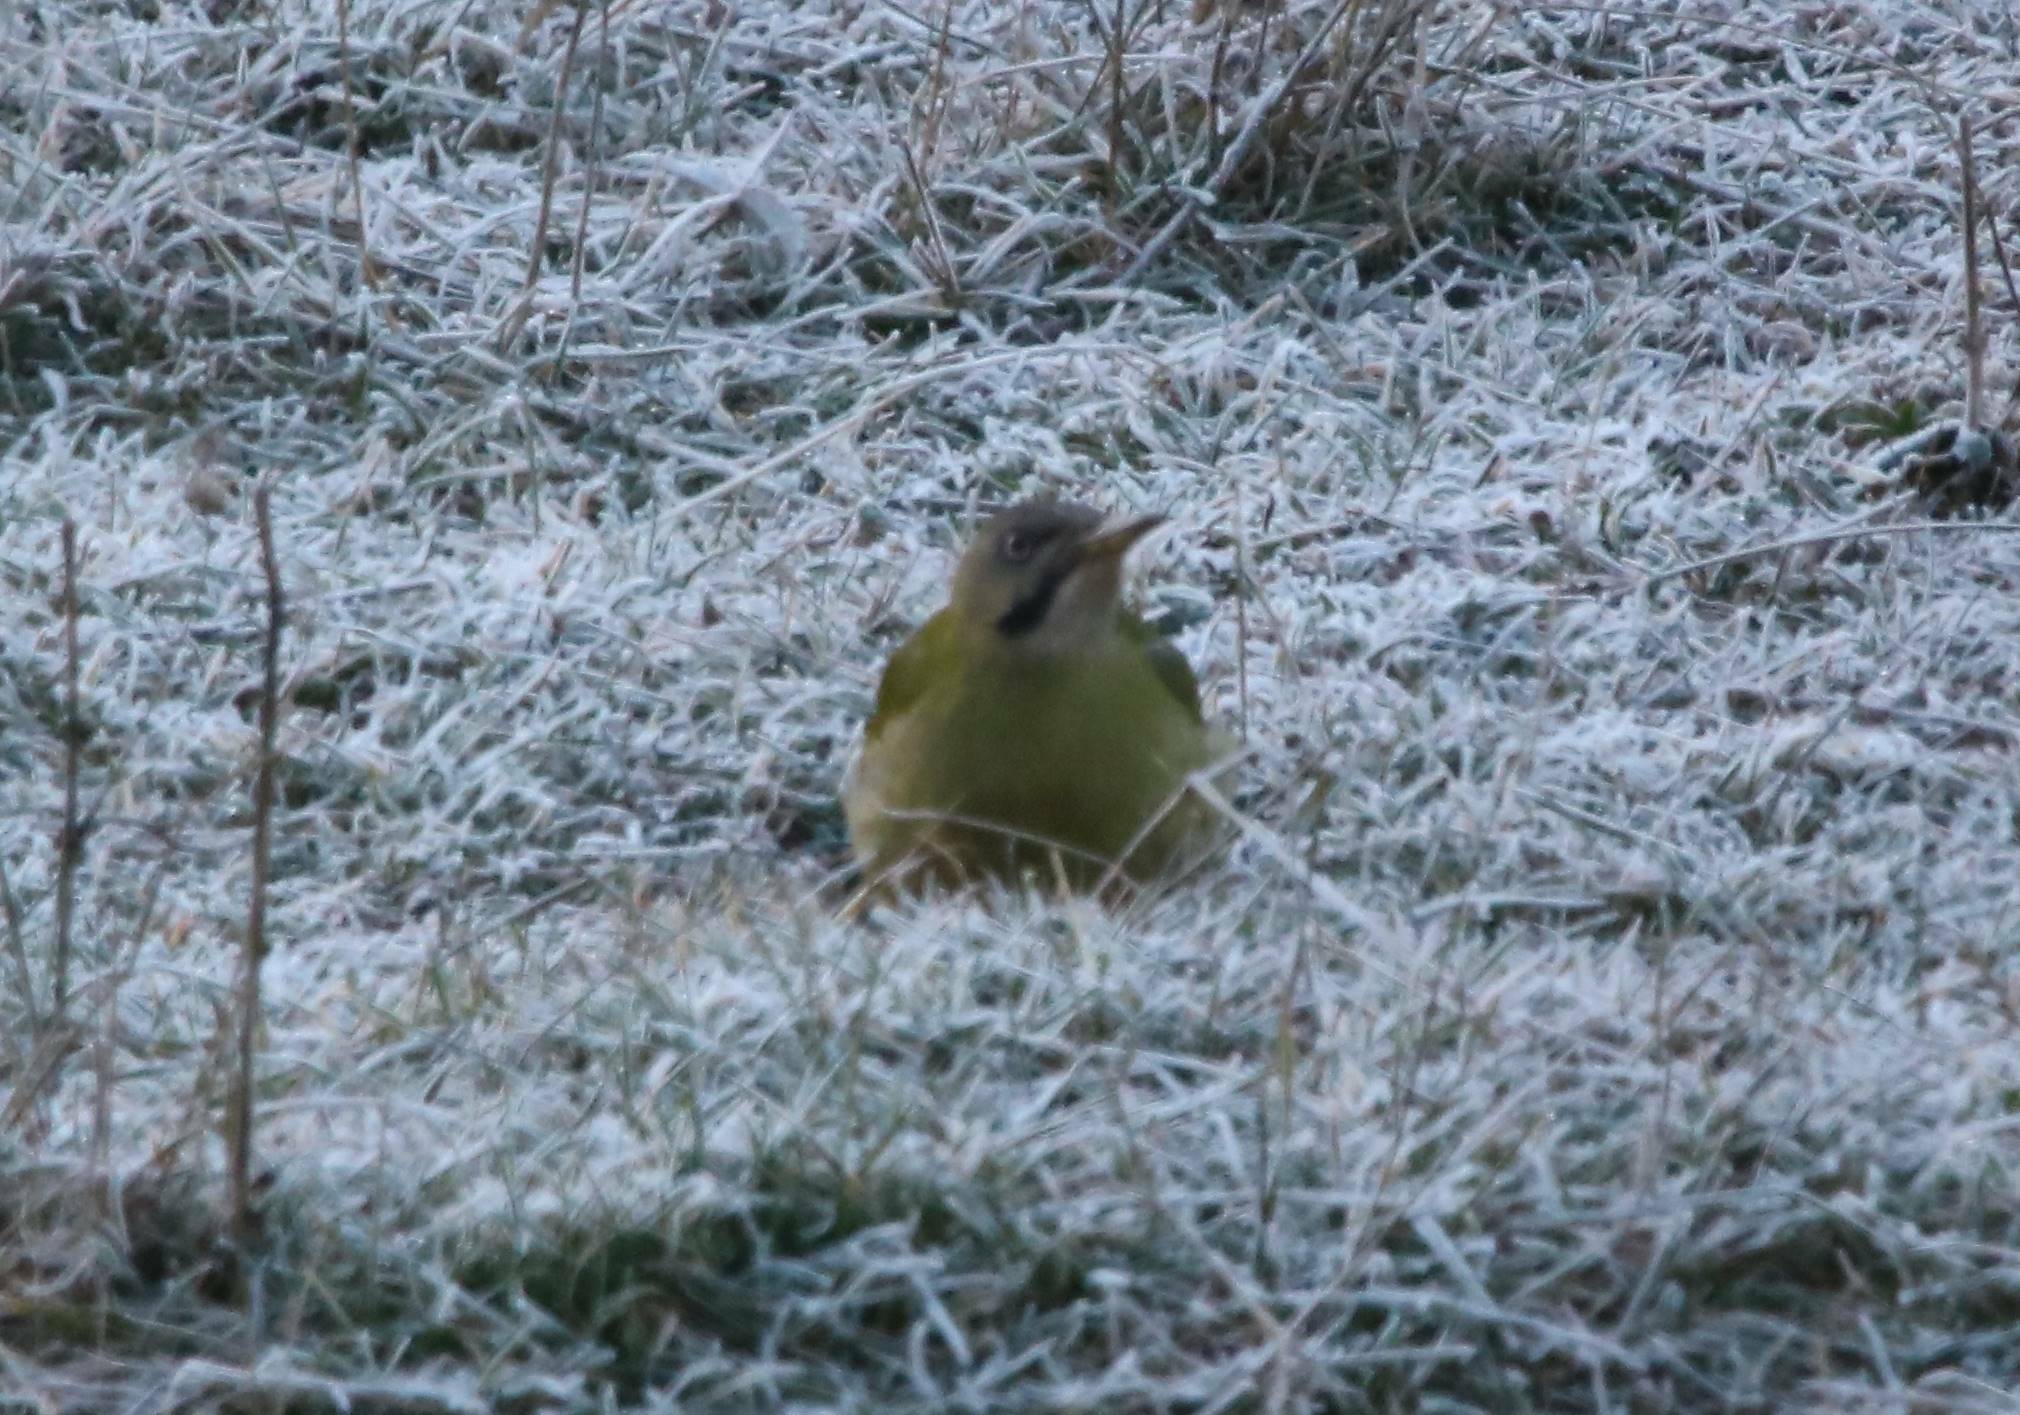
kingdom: Animalia
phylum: Chordata
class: Aves
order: Piciformes
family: Picidae
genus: Picus
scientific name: Picus vaillantii
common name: Levaillant's woodpecker
